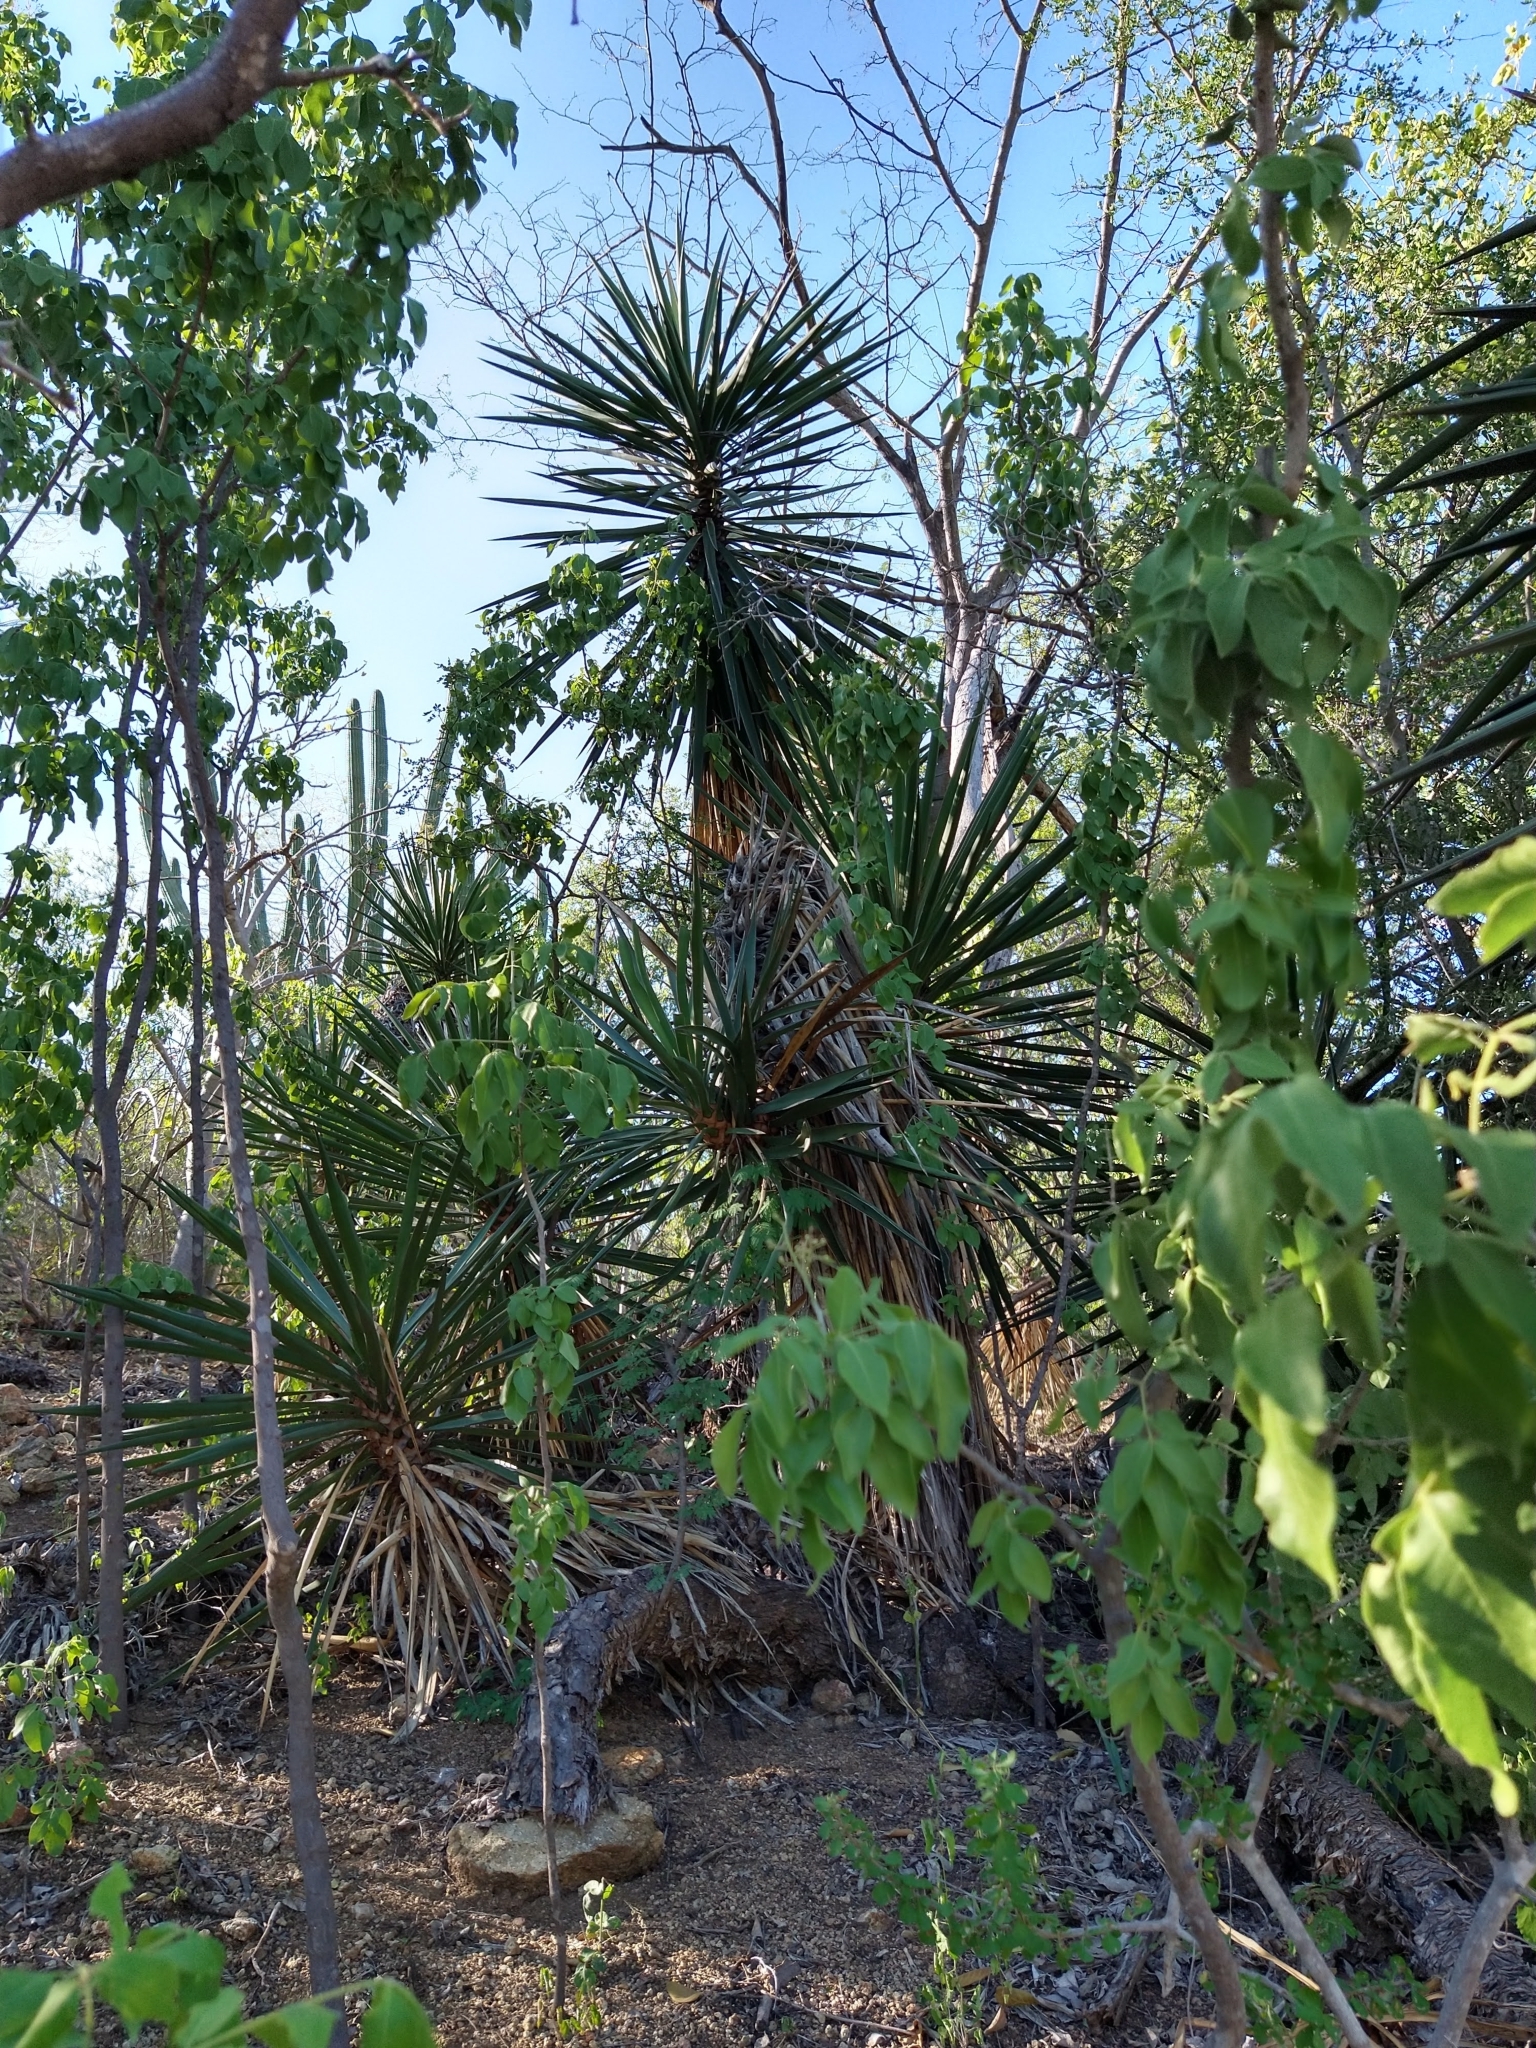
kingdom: Plantae
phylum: Tracheophyta
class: Liliopsida
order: Asparagales
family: Asparagaceae
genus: Yucca
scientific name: Yucca capensis
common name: Cape region yucca
